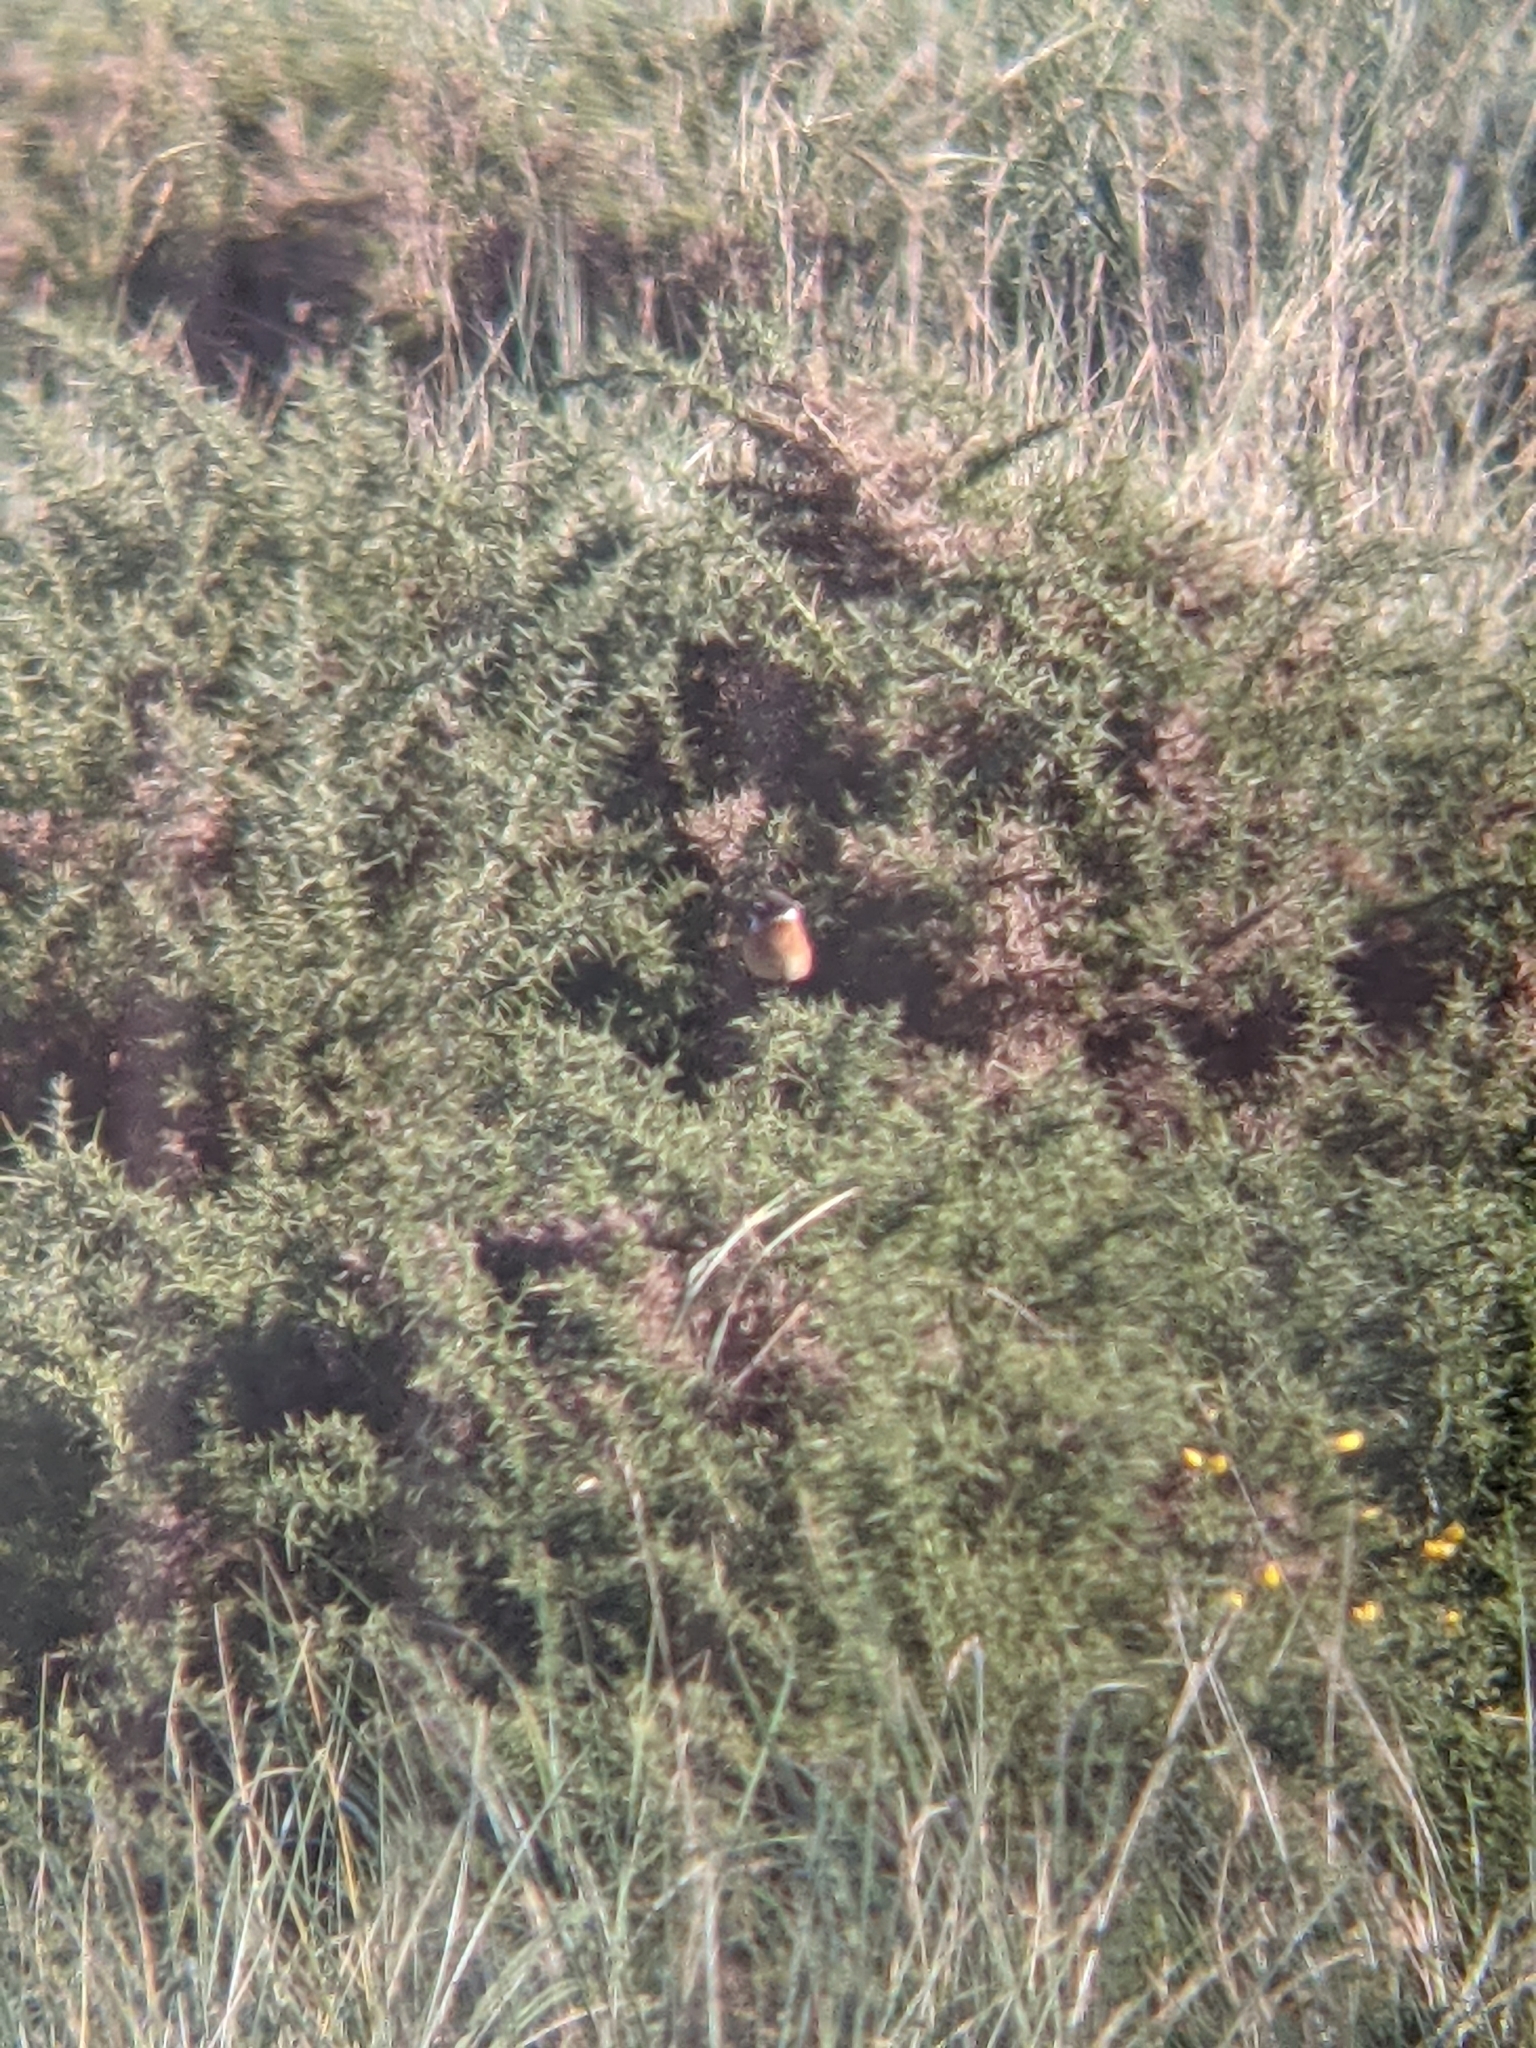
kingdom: Animalia
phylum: Chordata
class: Aves
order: Passeriformes
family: Muscicapidae
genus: Saxicola
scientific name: Saxicola rubicola
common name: European stonechat
